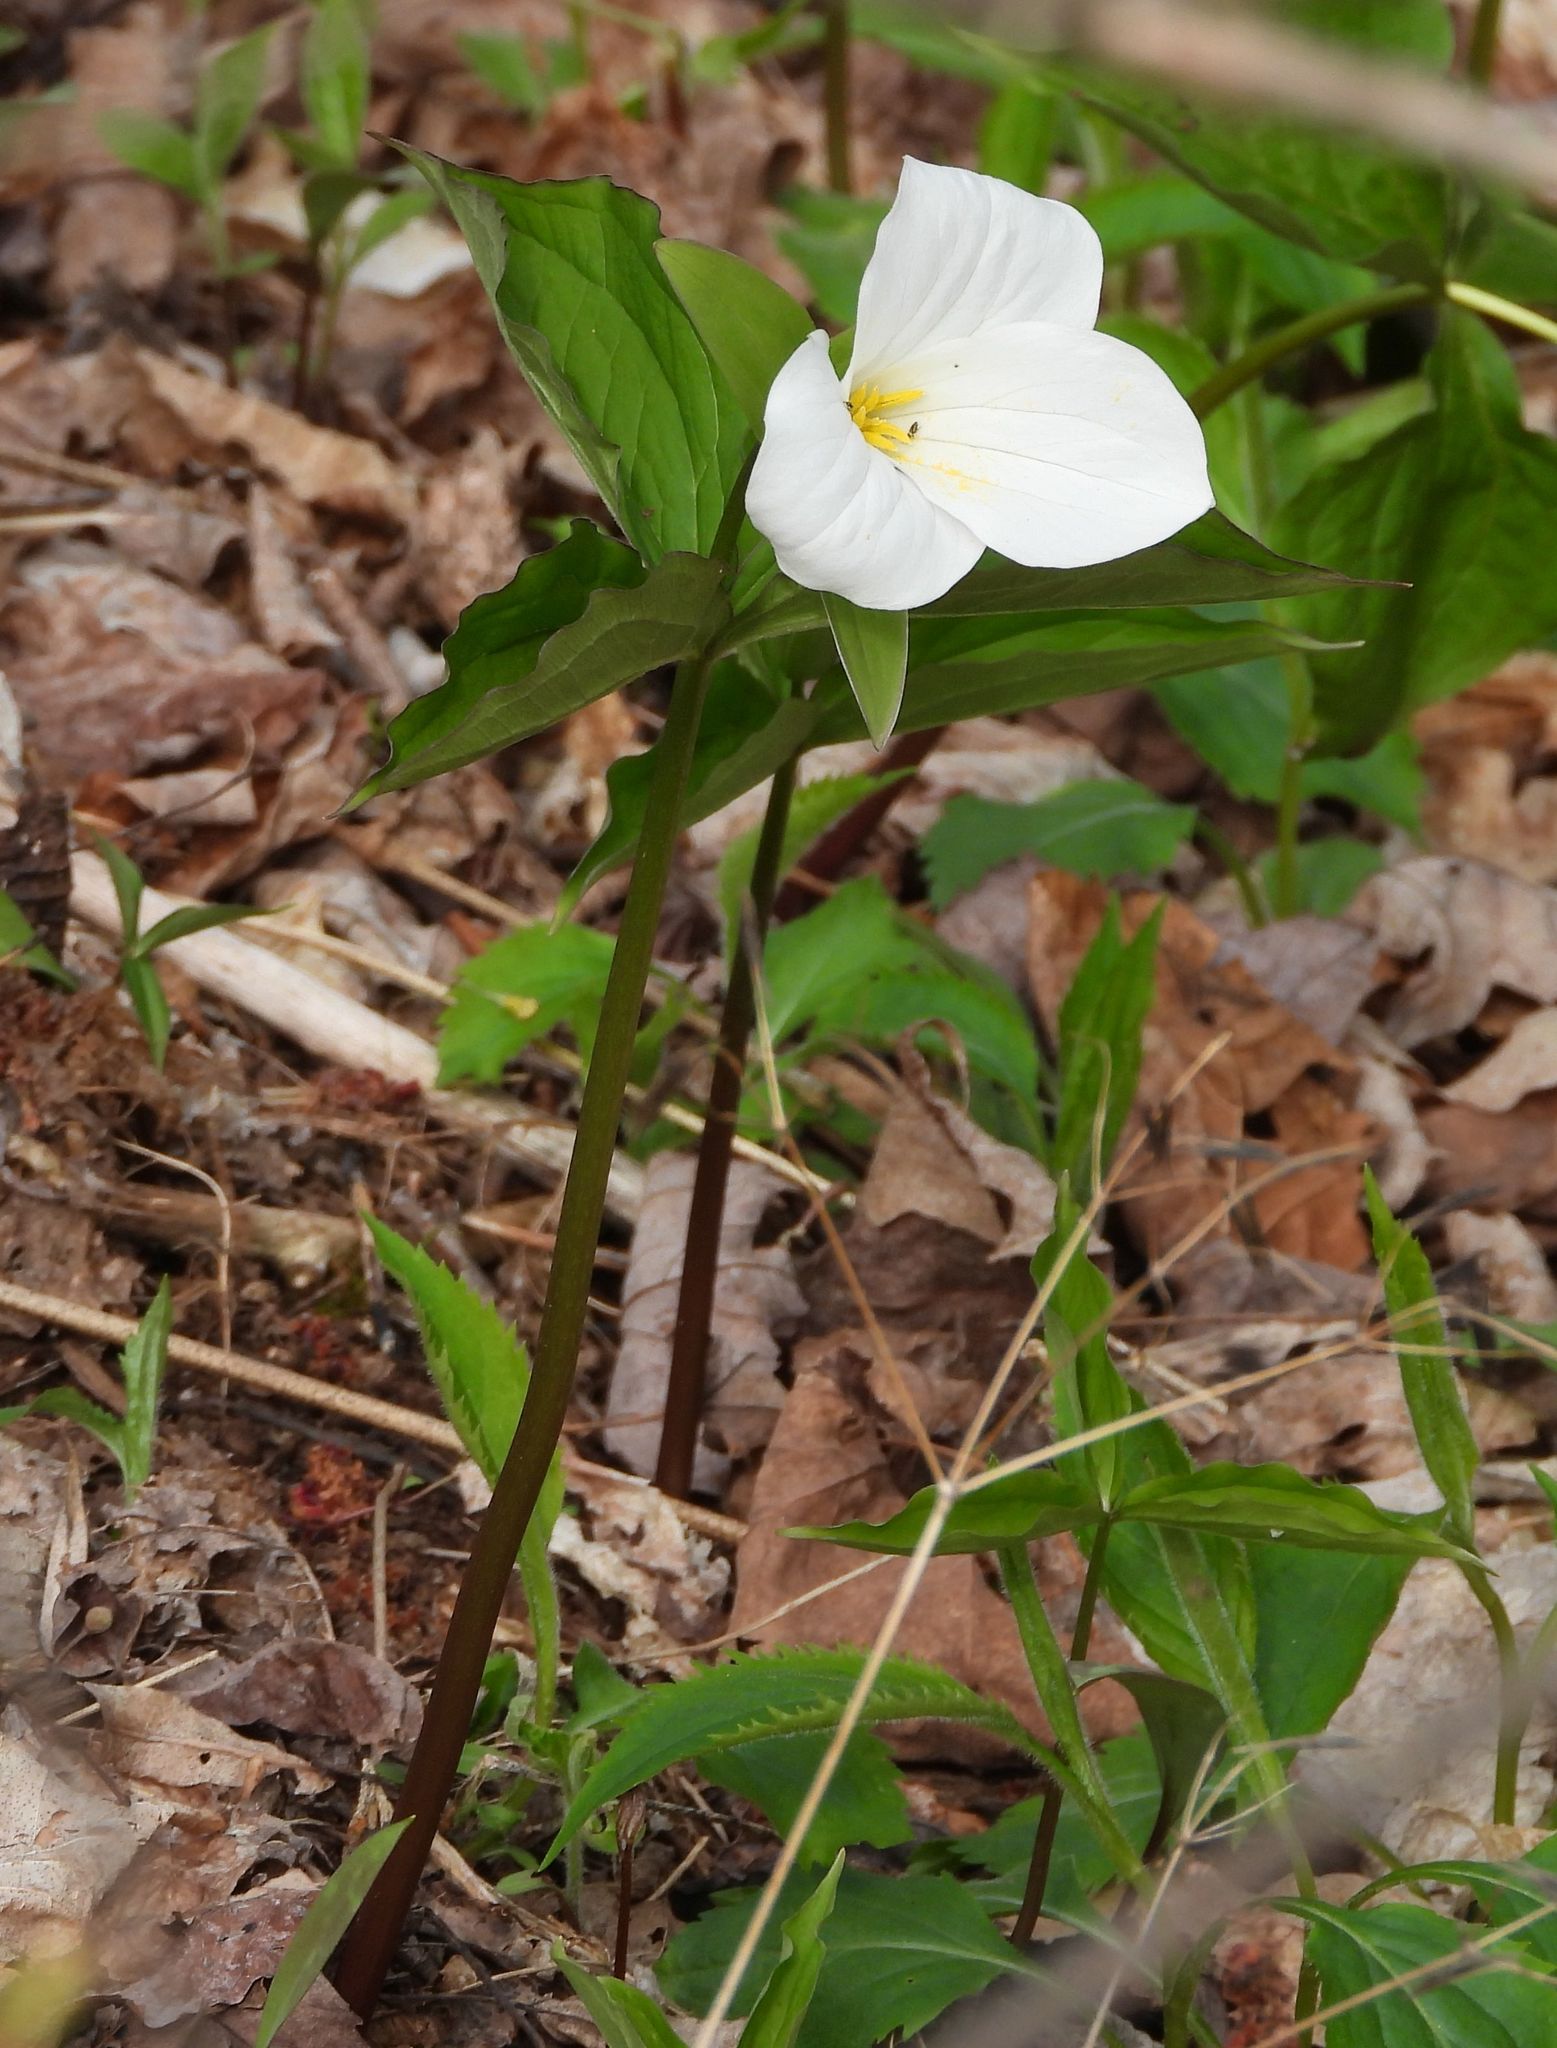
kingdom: Plantae
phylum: Tracheophyta
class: Liliopsida
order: Liliales
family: Melanthiaceae
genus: Trillium
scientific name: Trillium grandiflorum
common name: Great white trillium
